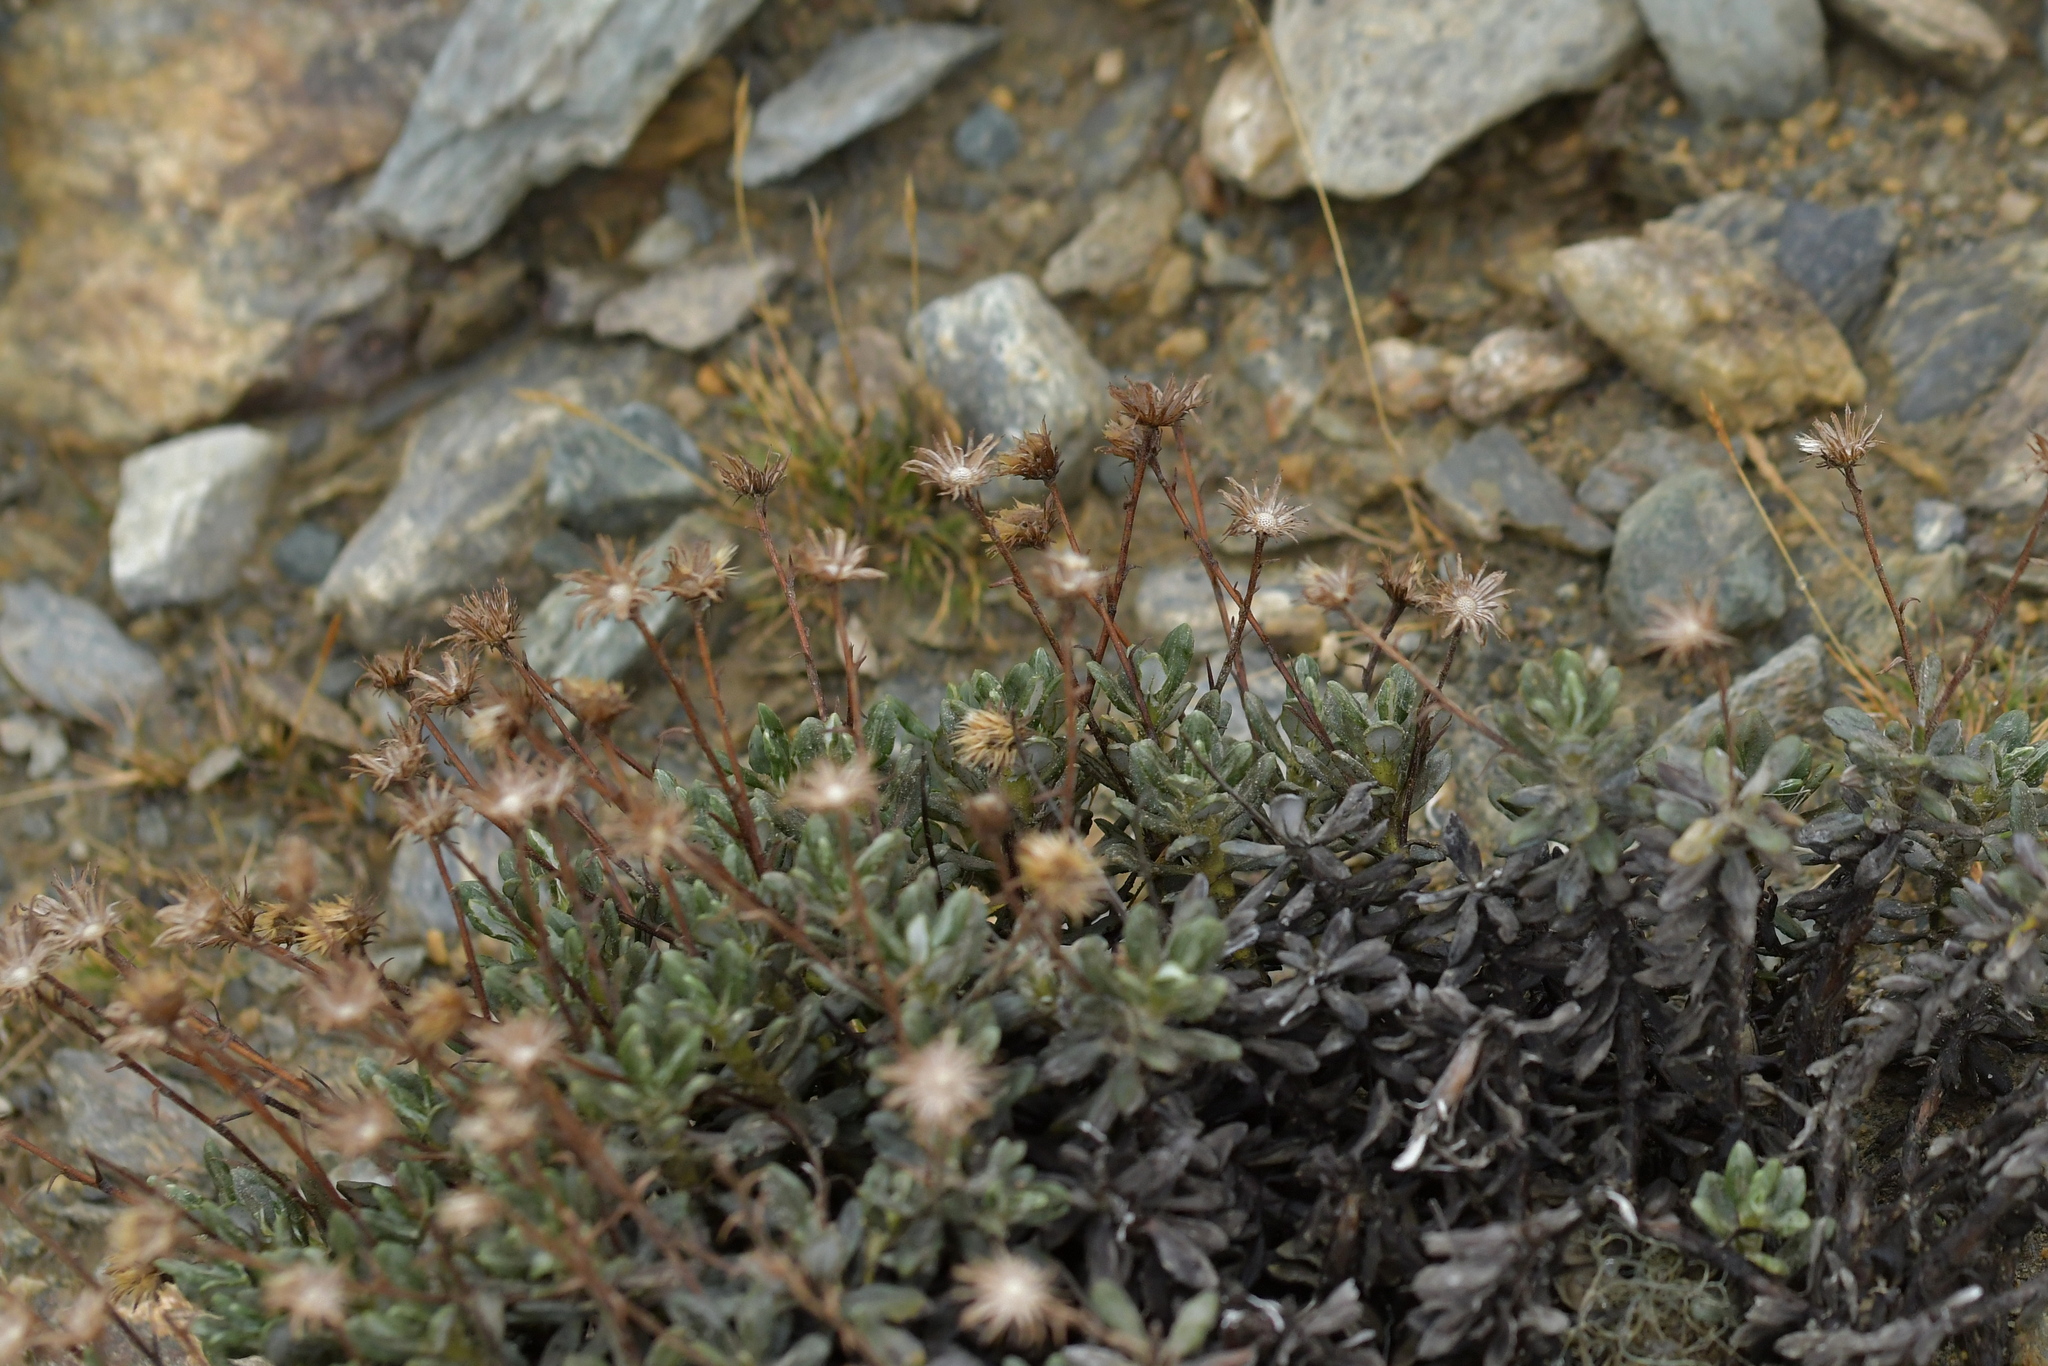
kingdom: Plantae
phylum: Tracheophyta
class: Magnoliopsida
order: Asterales
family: Asteraceae
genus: Celmisia
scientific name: Celmisia brevifolia
